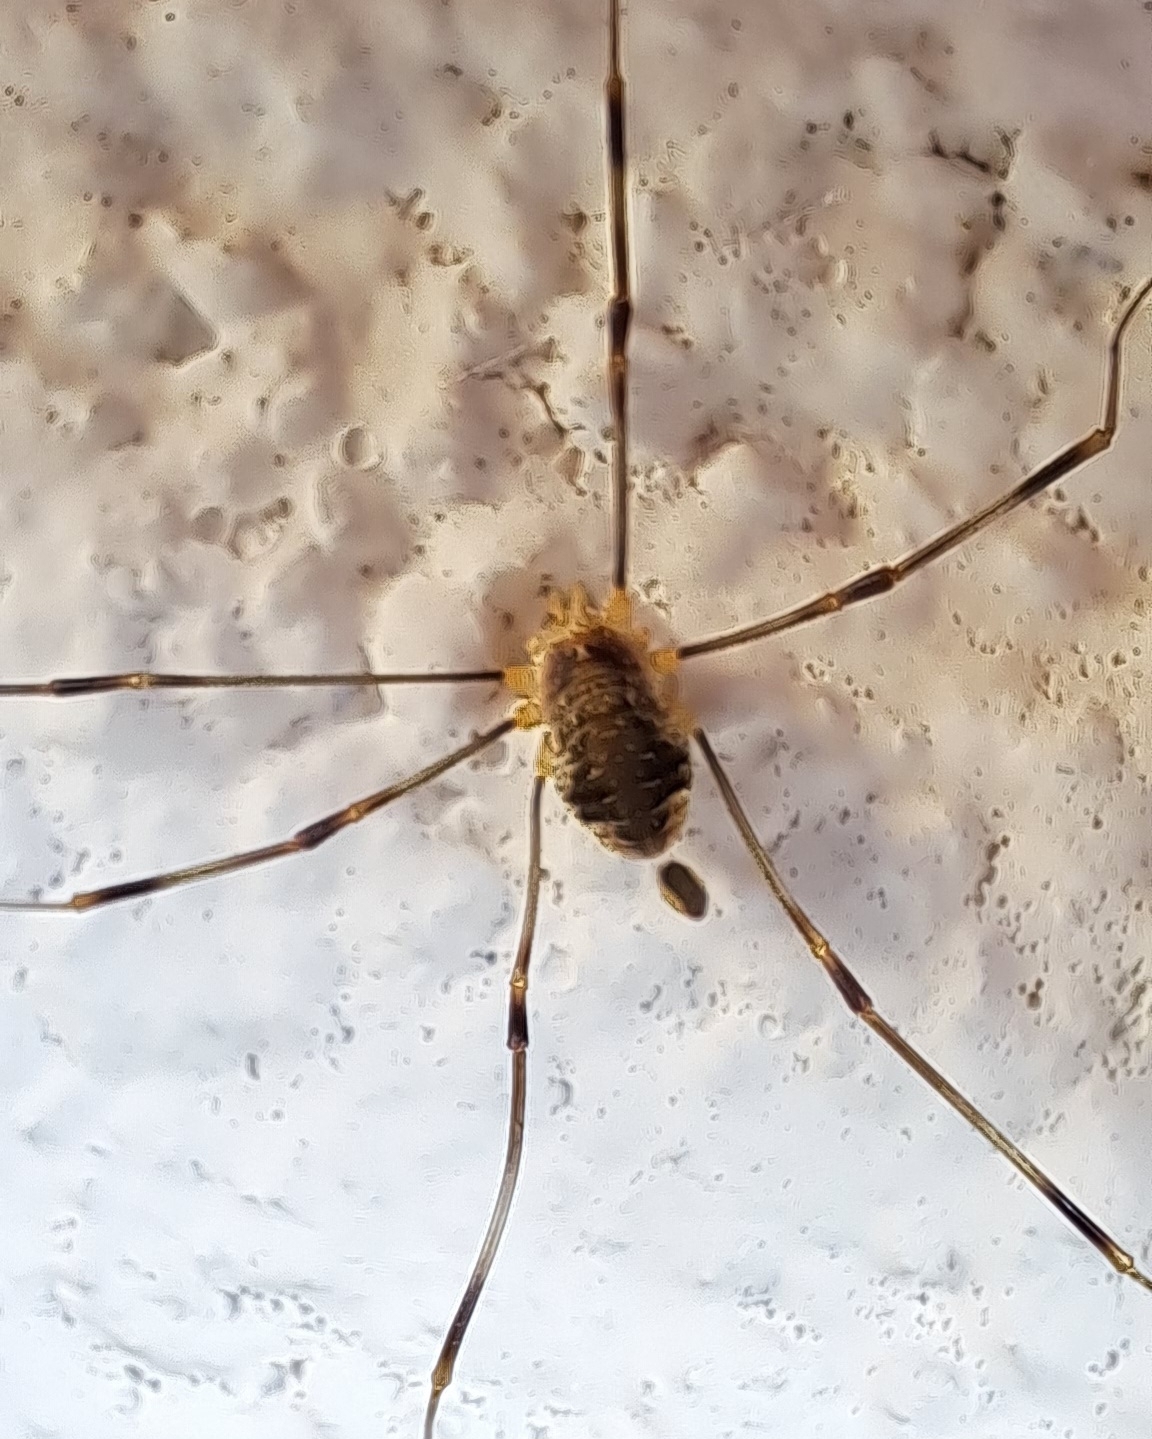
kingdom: Animalia
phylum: Arthropoda
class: Arachnida
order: Opiliones
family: Phalangiidae
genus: Opilio
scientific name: Opilio canestrinii
